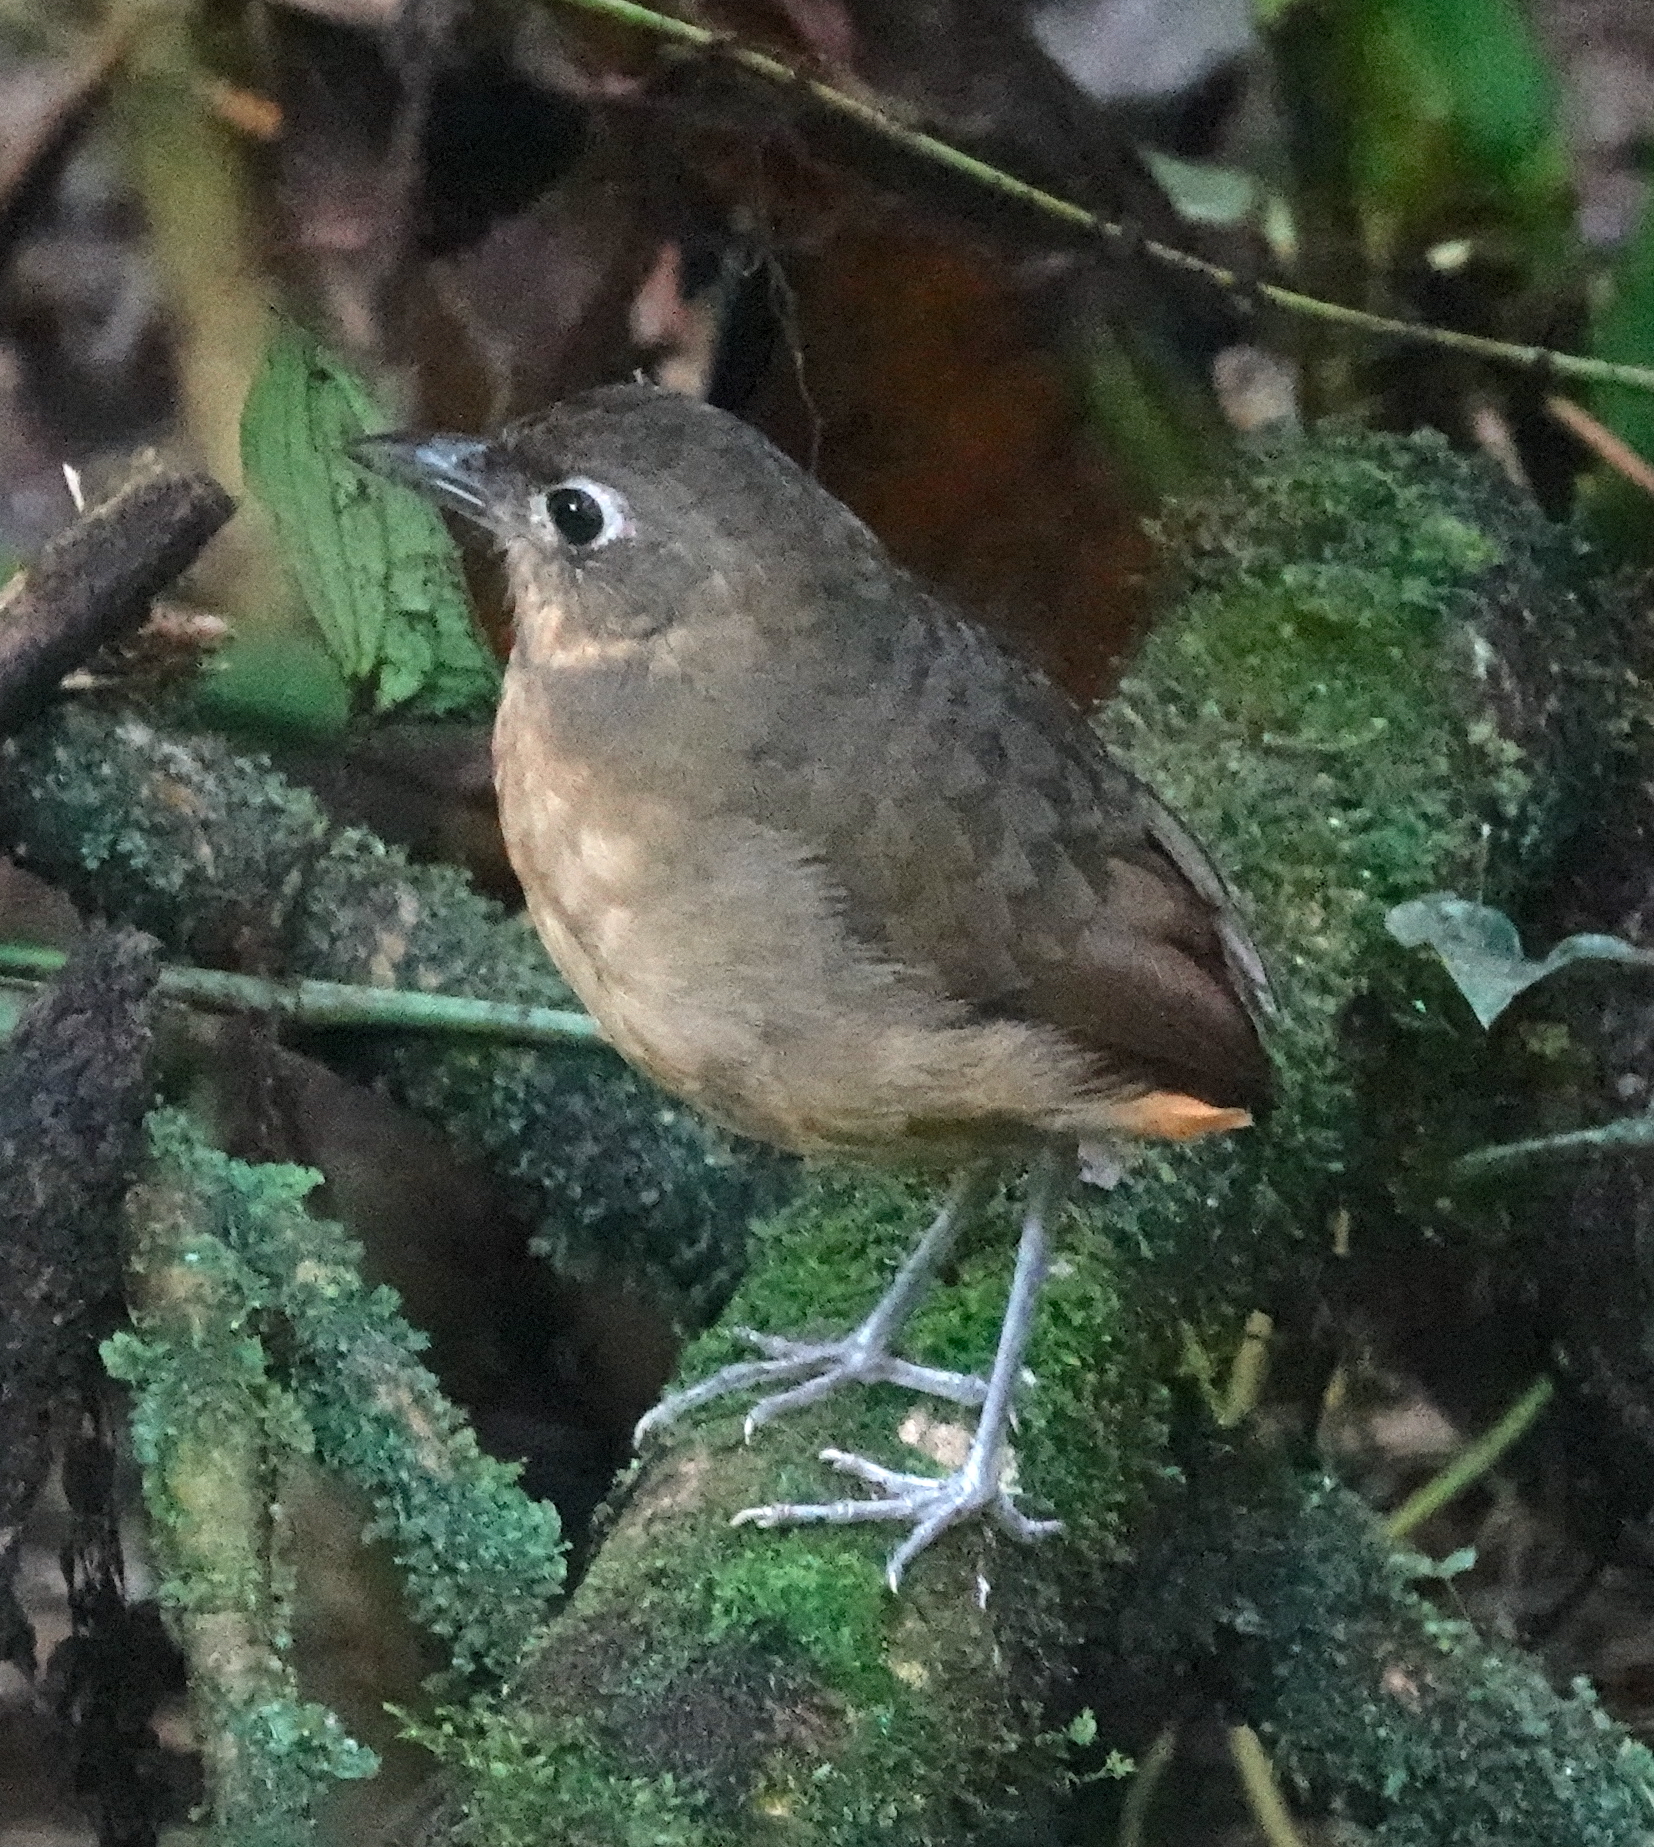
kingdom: Animalia
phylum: Chordata
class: Aves
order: Passeriformes
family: Grallariidae
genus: Grallaria
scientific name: Grallaria haplonota
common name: Plain-backed antpitta
